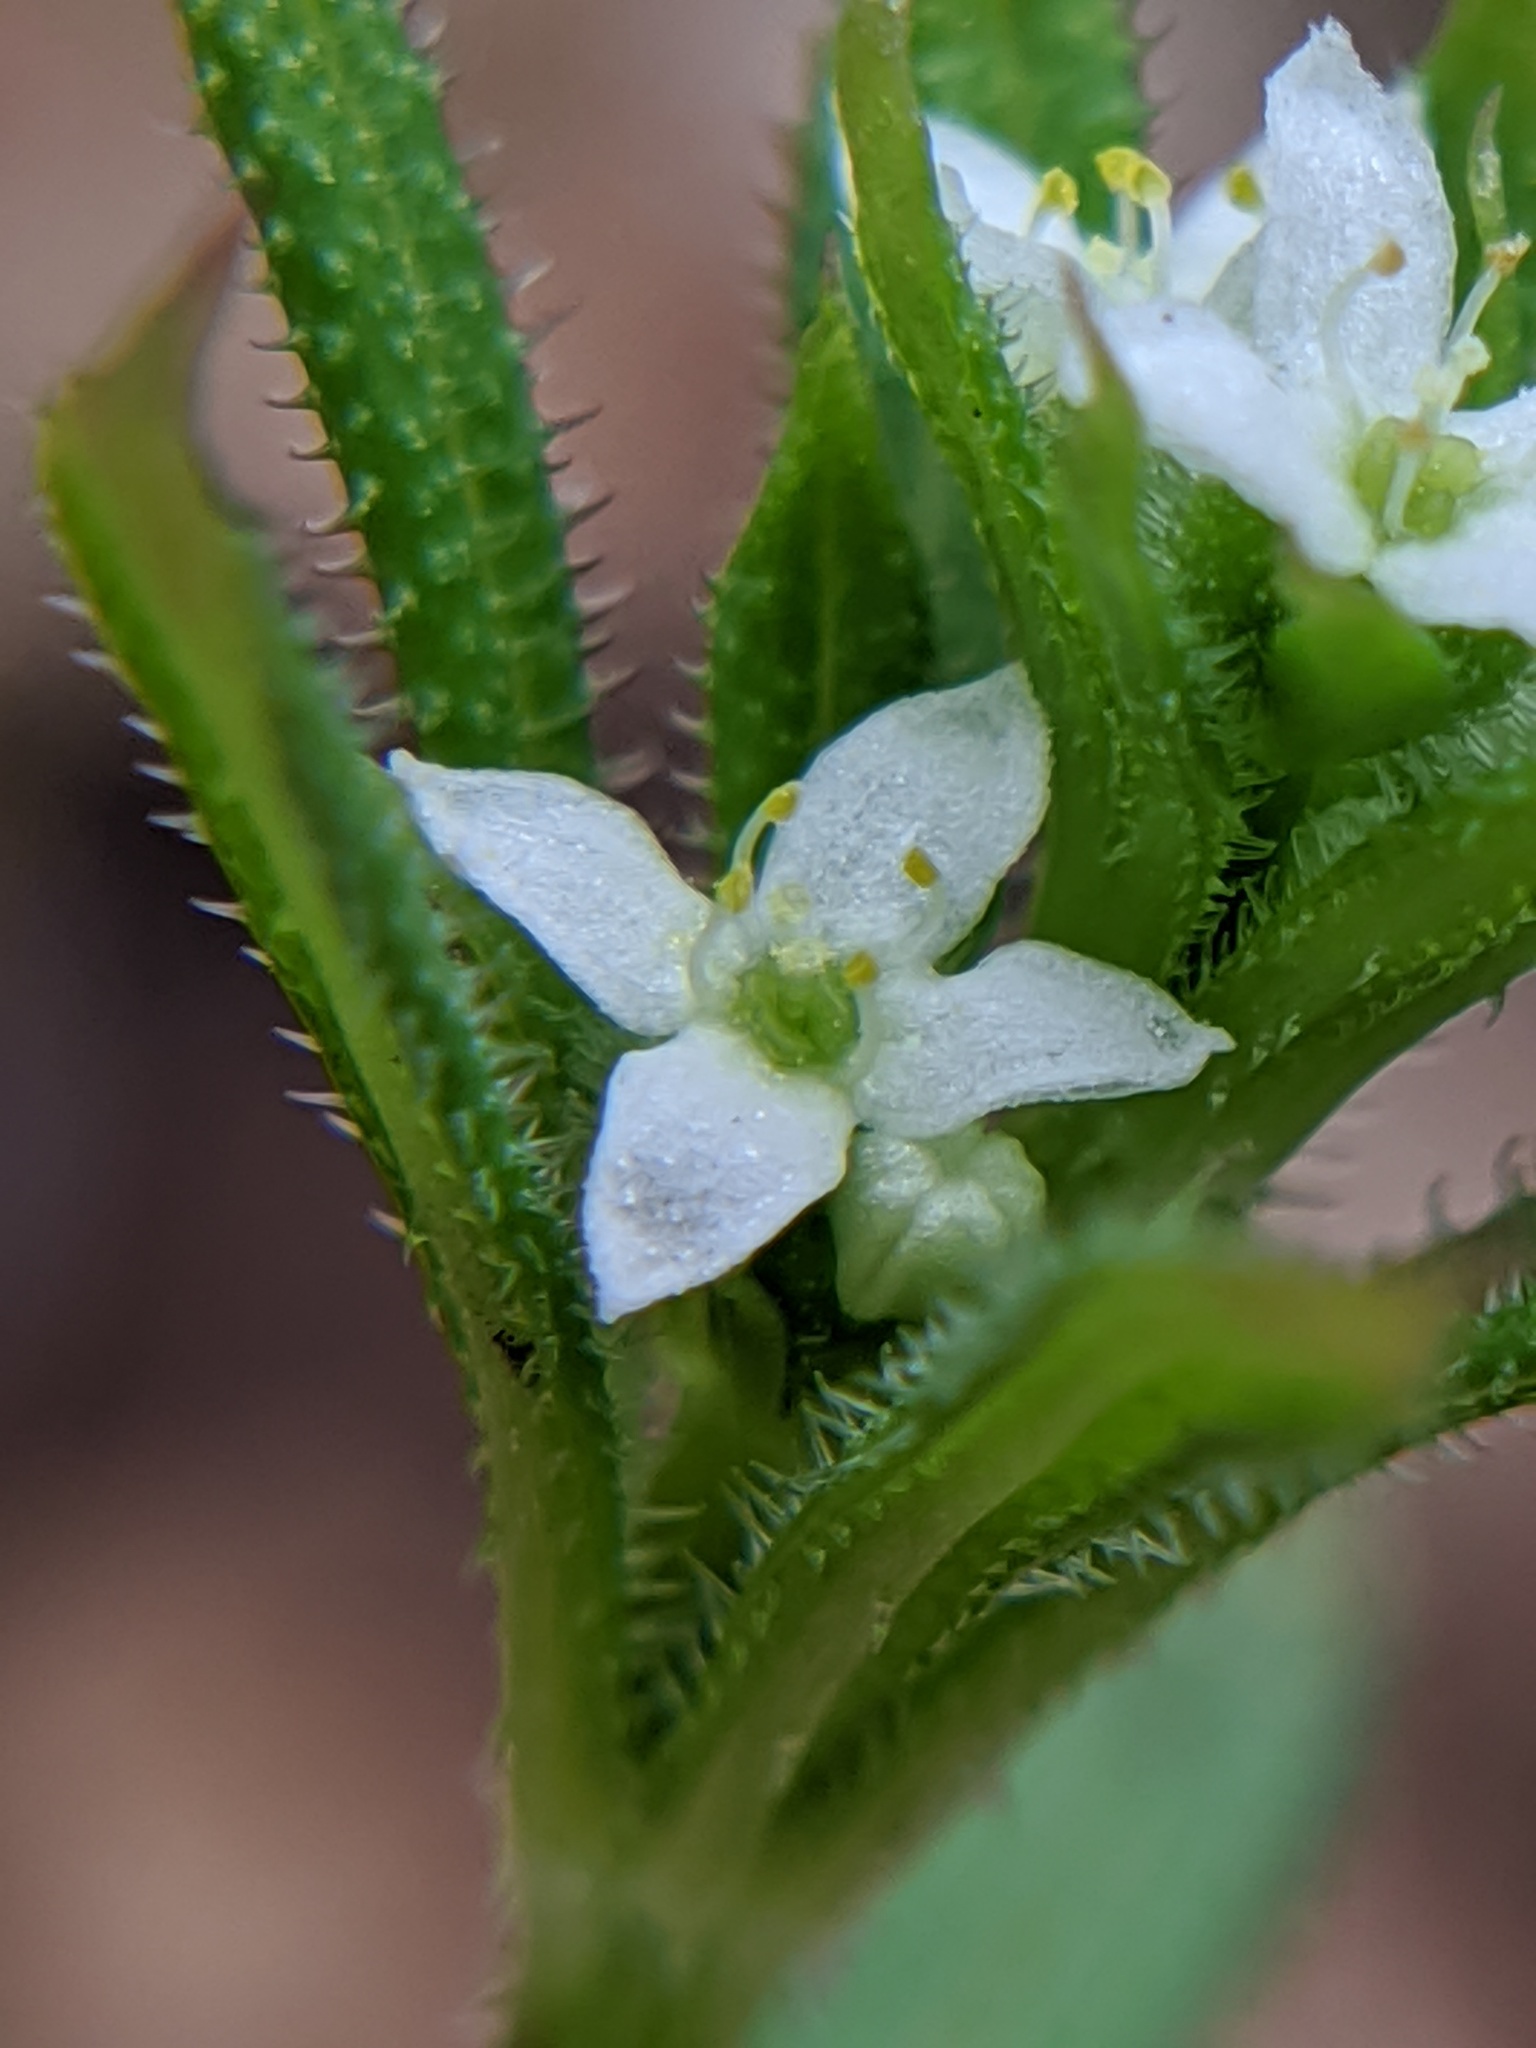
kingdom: Plantae
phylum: Tracheophyta
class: Magnoliopsida
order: Gentianales
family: Rubiaceae
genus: Galium
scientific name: Galium aparine
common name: Cleavers
